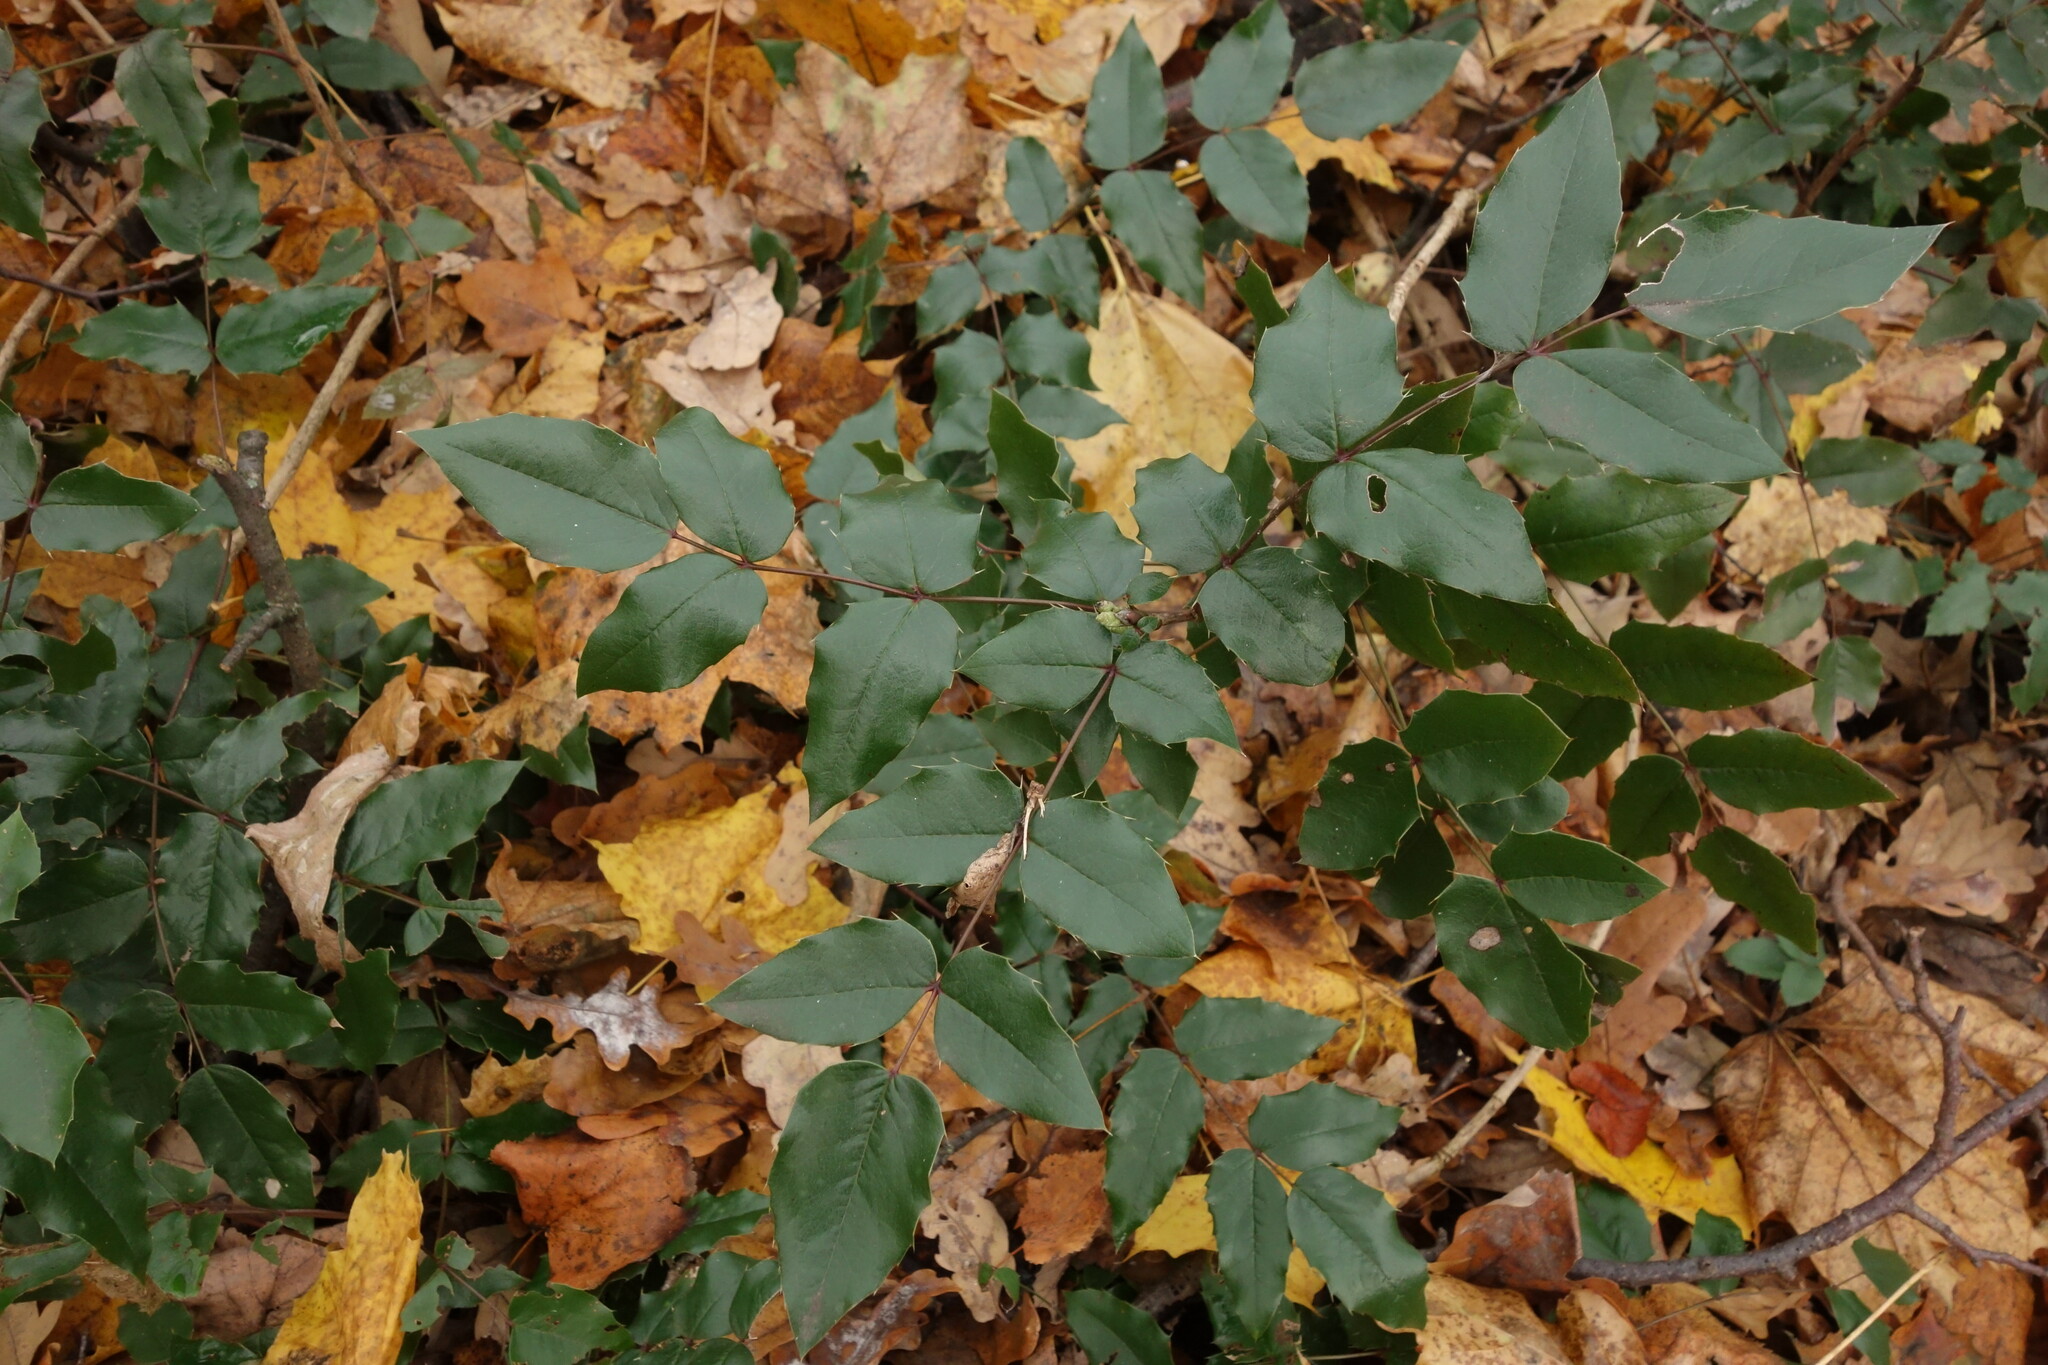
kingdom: Plantae
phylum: Tracheophyta
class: Magnoliopsida
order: Ranunculales
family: Berberidaceae
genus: Mahonia
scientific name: Mahonia aquifolium
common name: Oregon-grape
